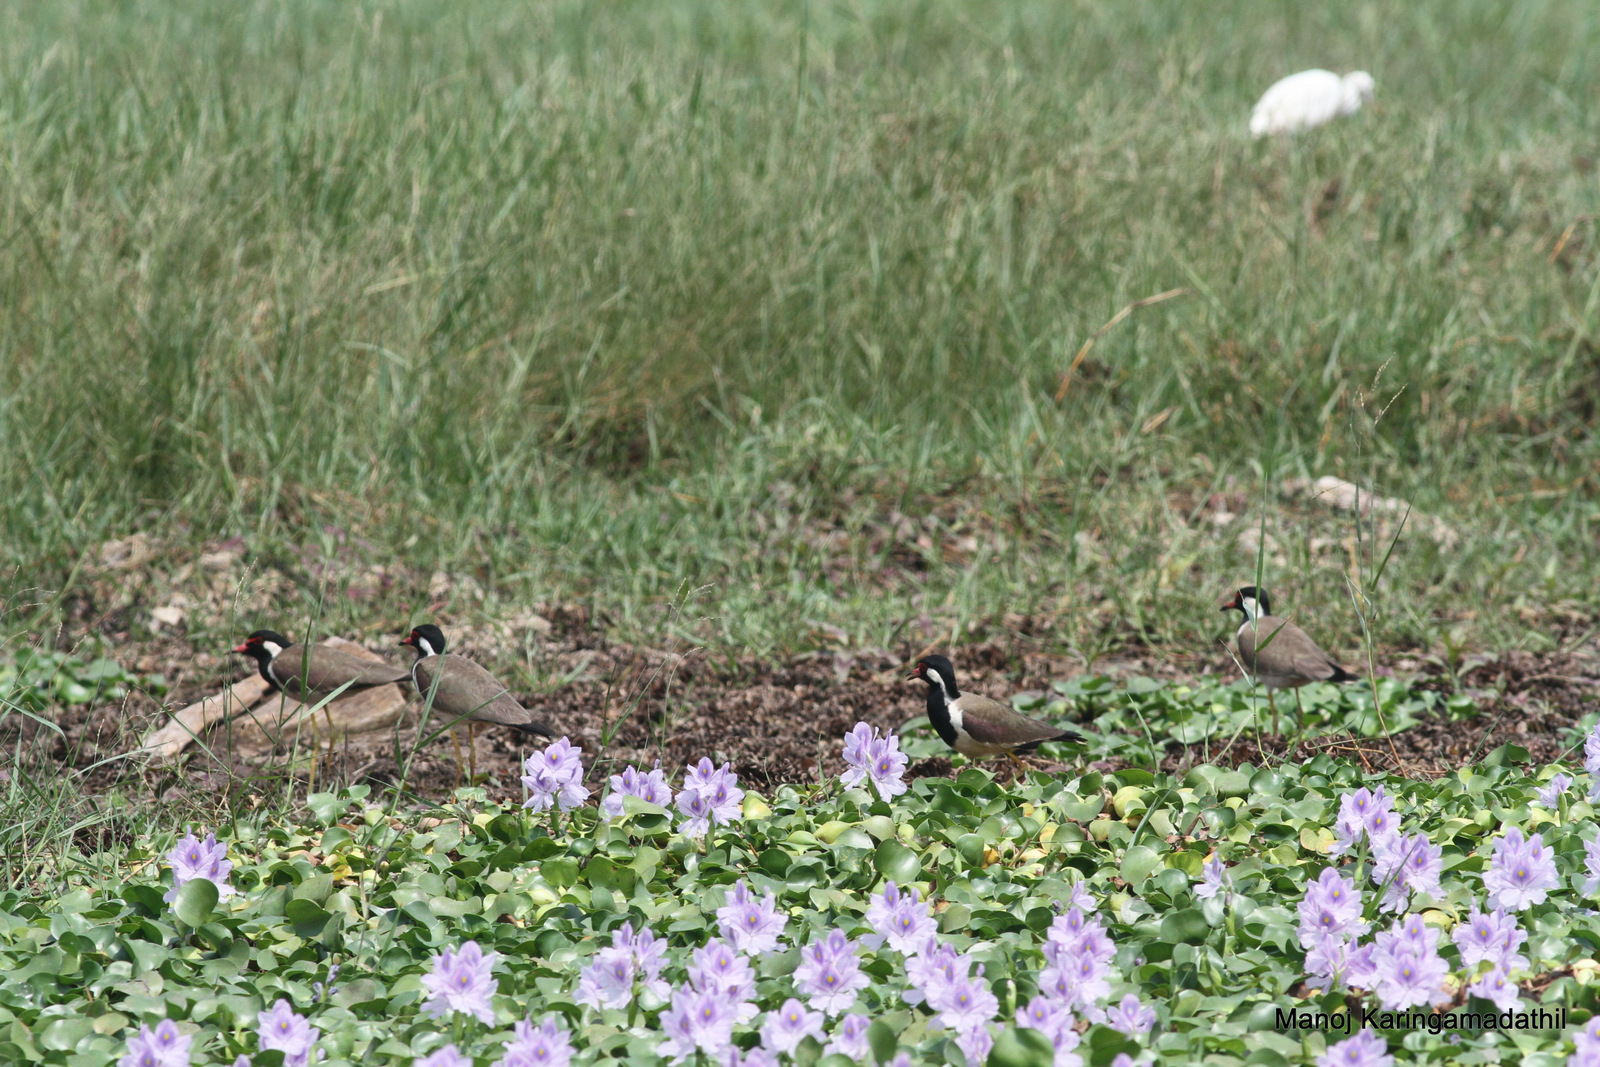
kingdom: Animalia
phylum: Chordata
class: Aves
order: Charadriiformes
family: Charadriidae
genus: Vanellus
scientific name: Vanellus indicus
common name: Red-wattled lapwing
